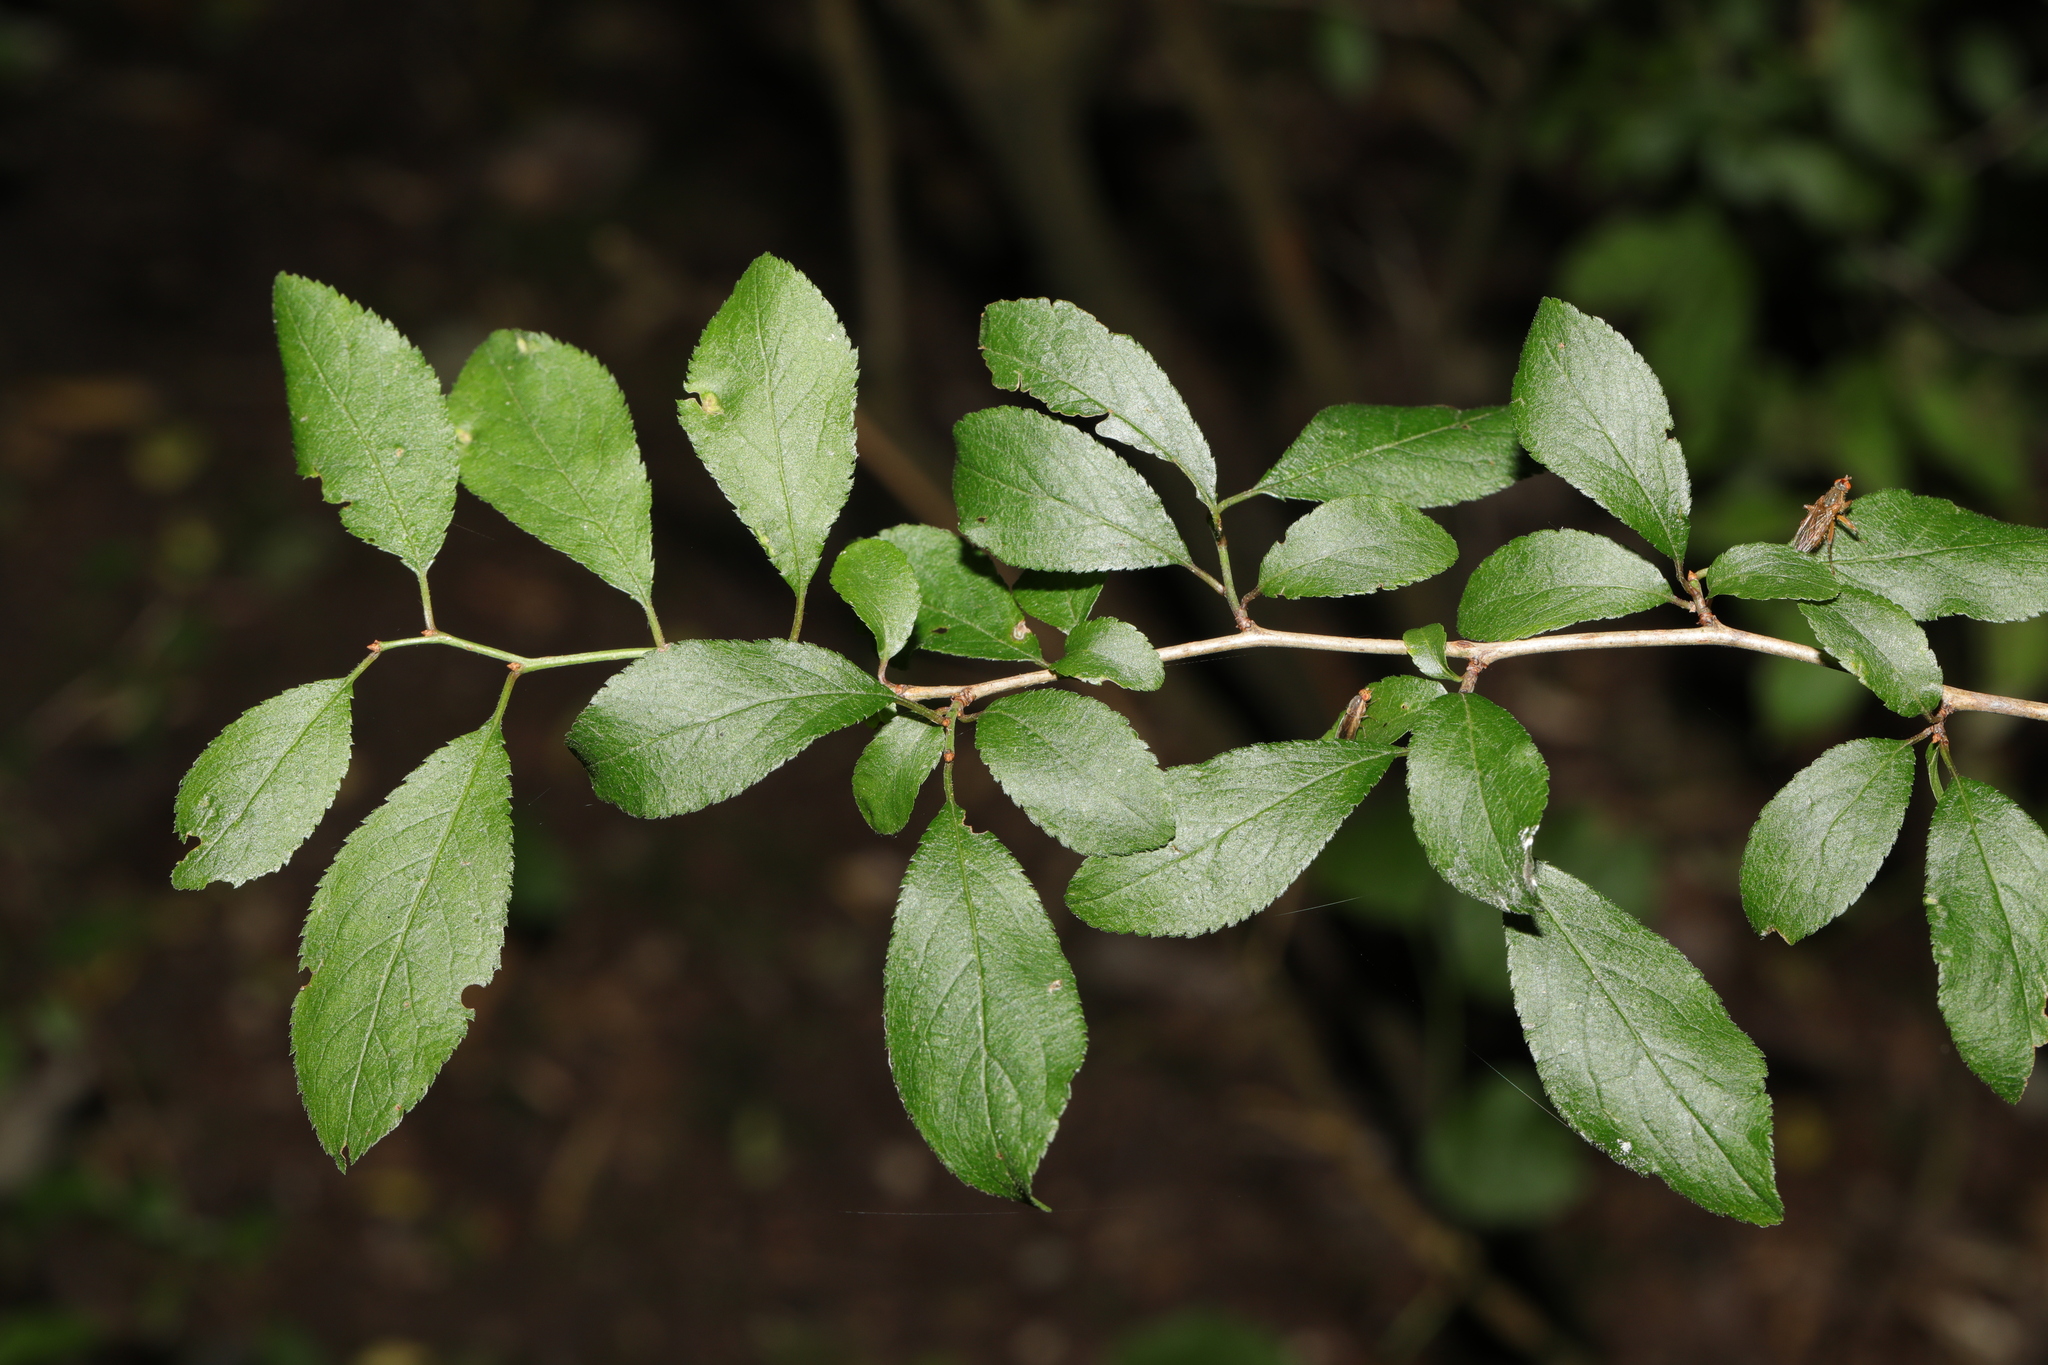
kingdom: Plantae
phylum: Tracheophyta
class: Magnoliopsida
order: Rosales
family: Rosaceae
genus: Prunus
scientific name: Prunus spinosa
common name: Blackthorn
